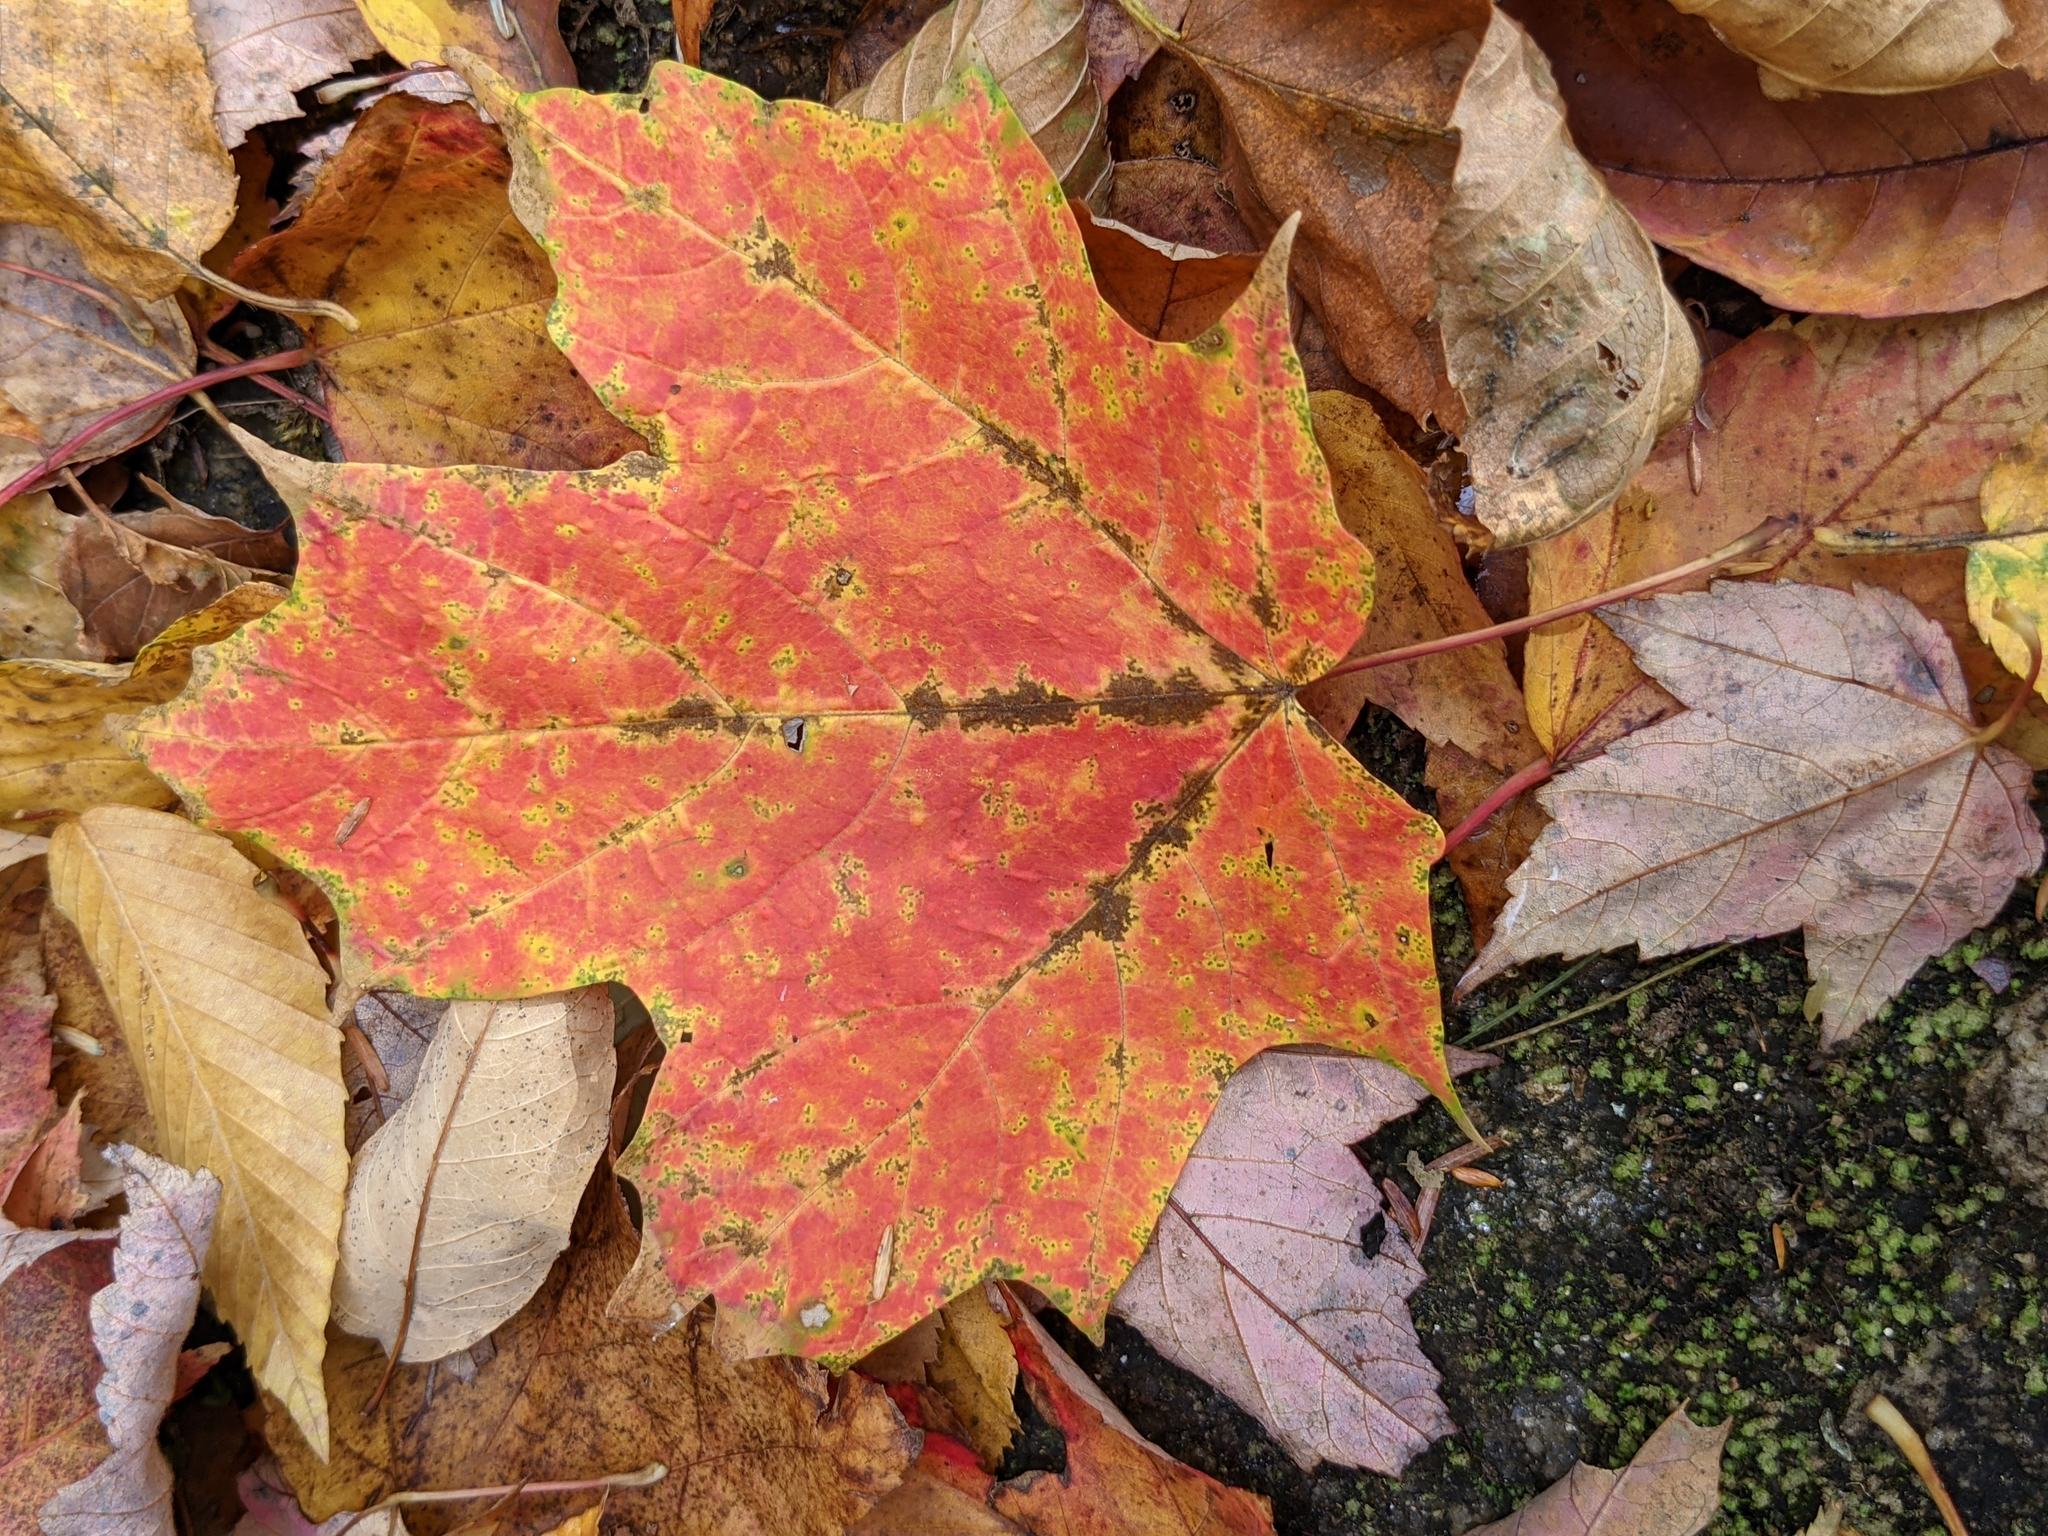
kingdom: Plantae
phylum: Tracheophyta
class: Magnoliopsida
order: Sapindales
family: Sapindaceae
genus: Acer
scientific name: Acer saccharum
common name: Sugar maple
